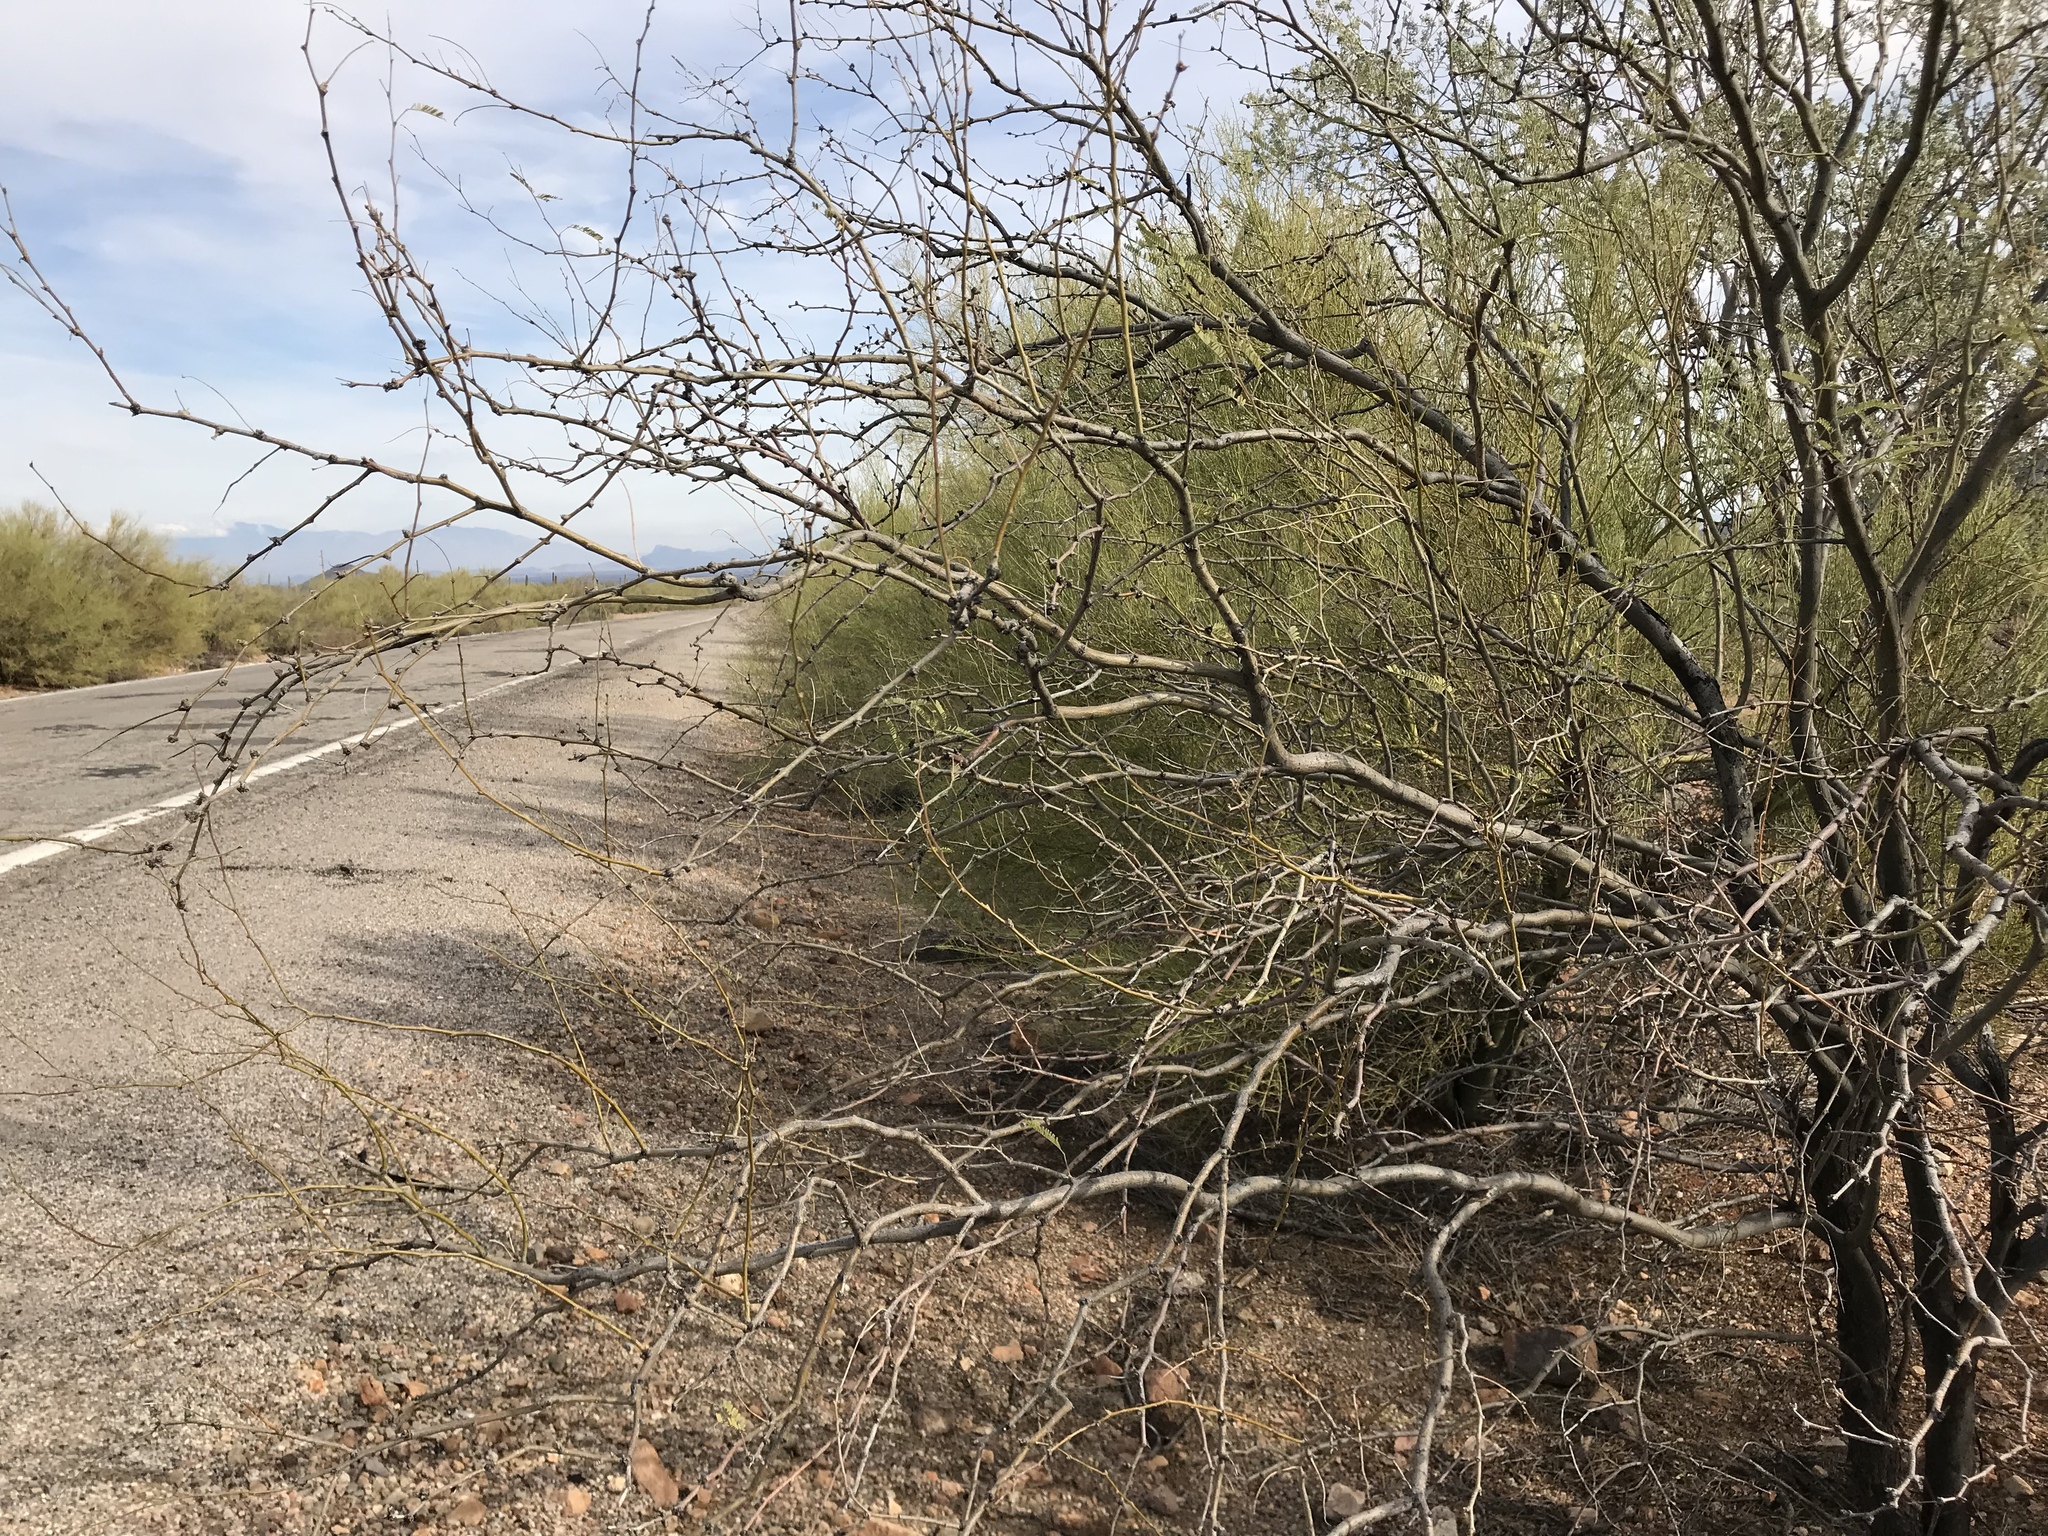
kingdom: Plantae
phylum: Tracheophyta
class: Magnoliopsida
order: Fabales
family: Fabaceae
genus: Prosopis
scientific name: Prosopis velutina
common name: Velvet mesquite
